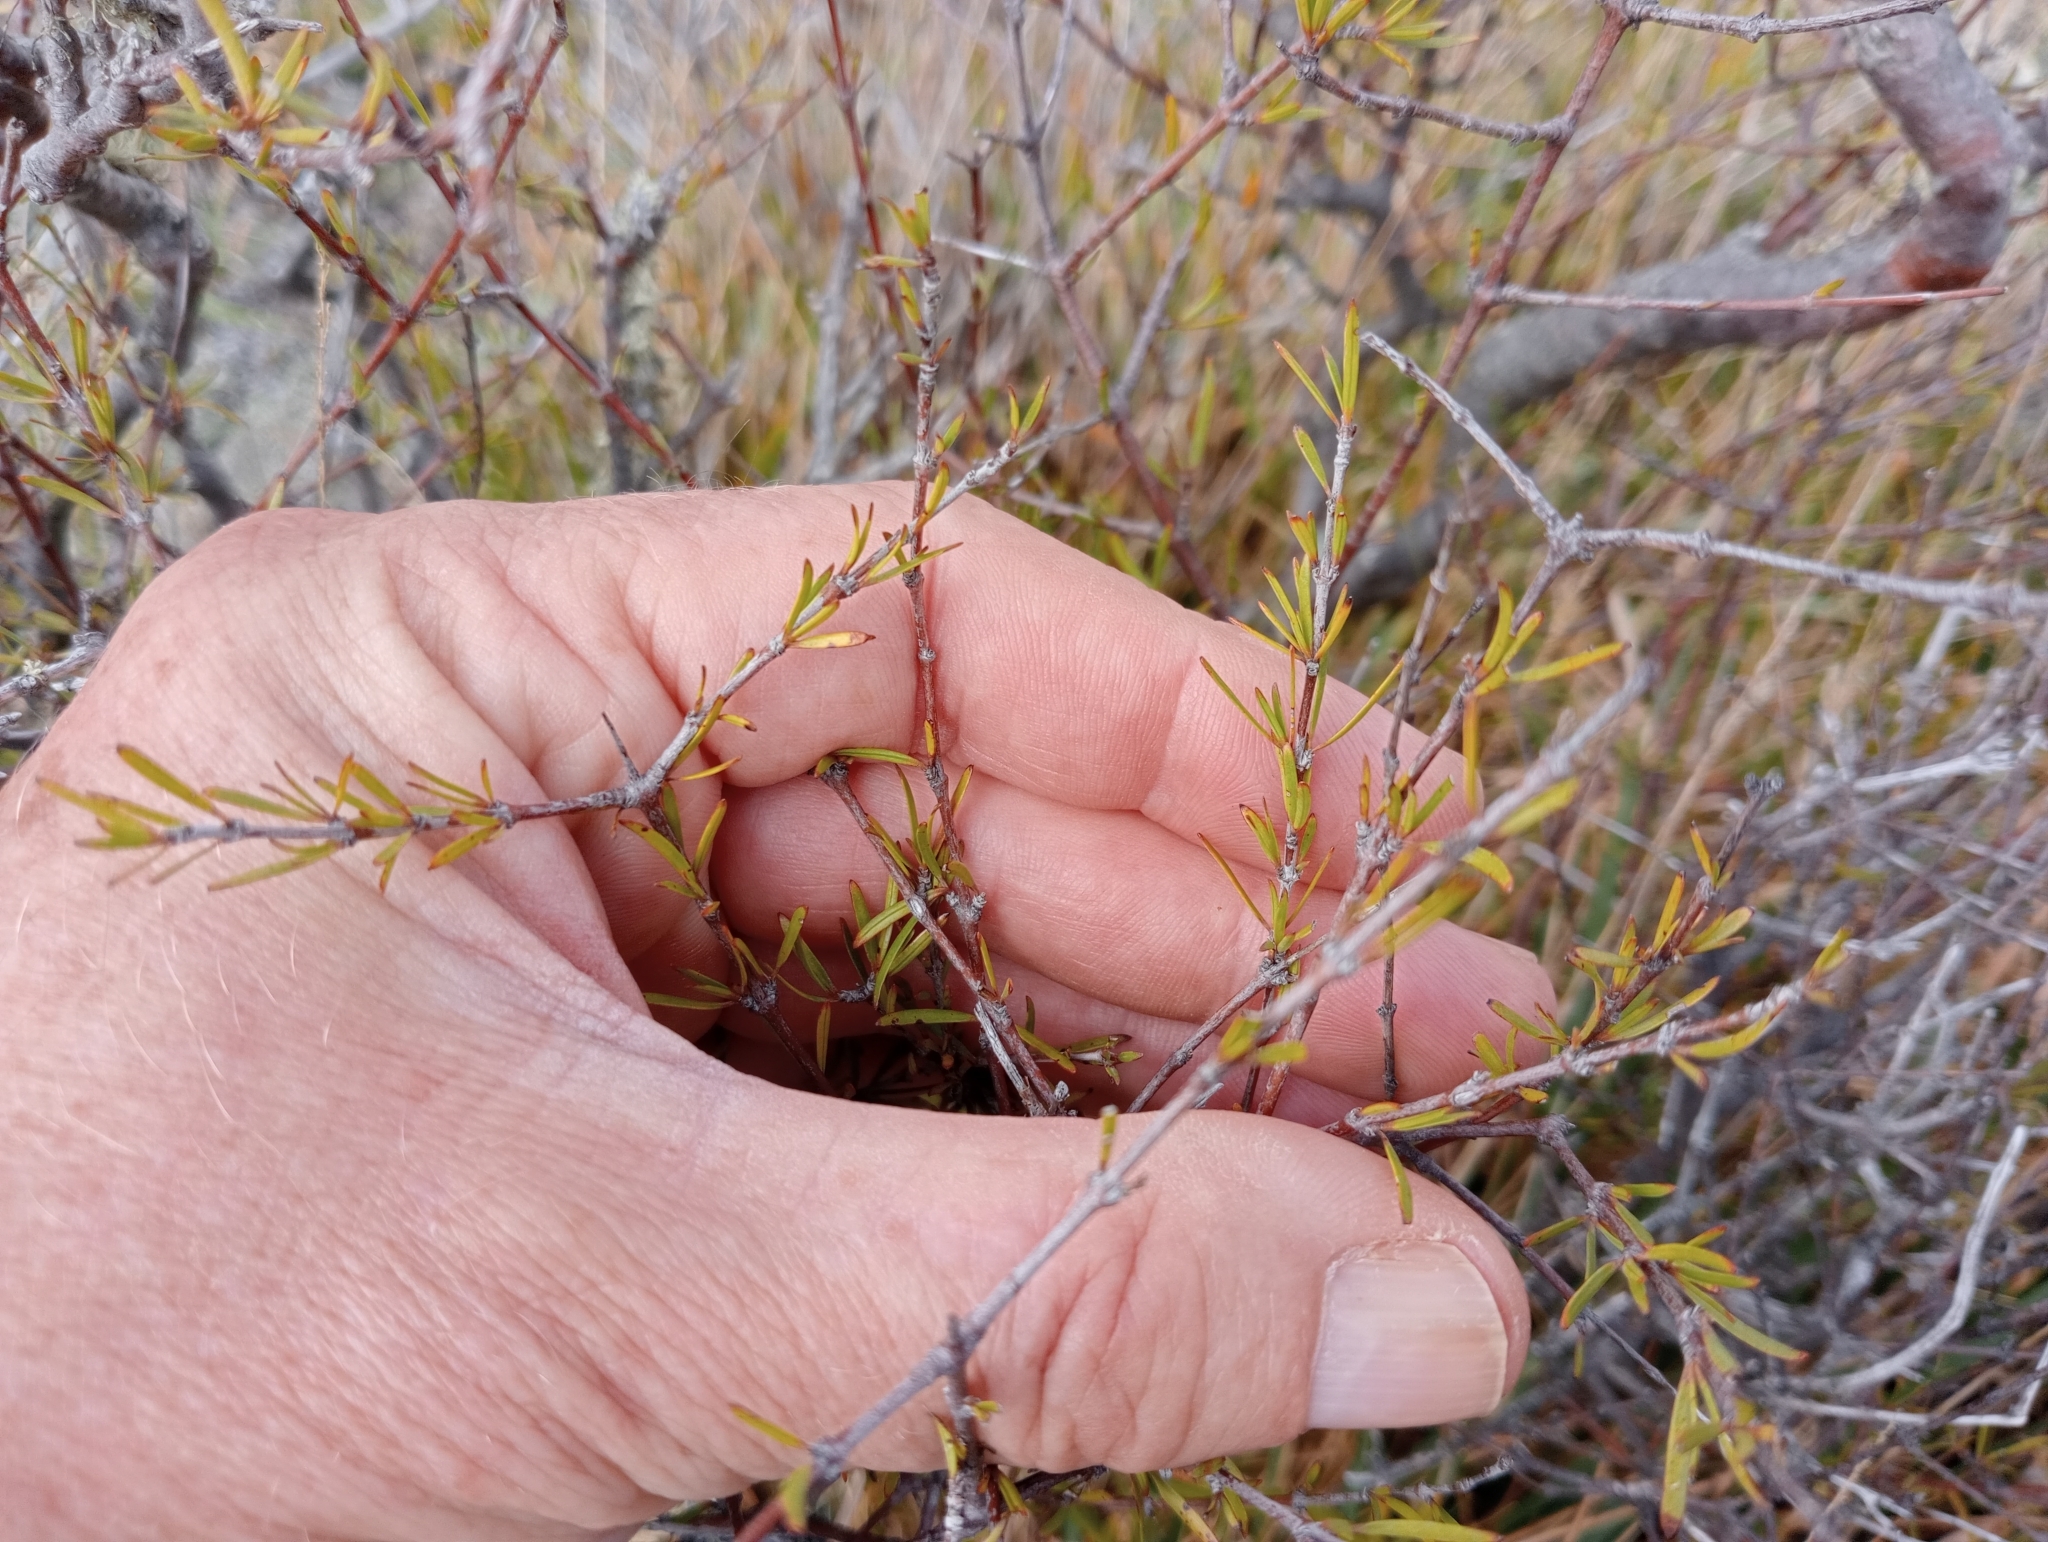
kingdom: Plantae
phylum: Tracheophyta
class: Magnoliopsida
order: Gentianales
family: Rubiaceae
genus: Coprosma
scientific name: Coprosma intertexta
